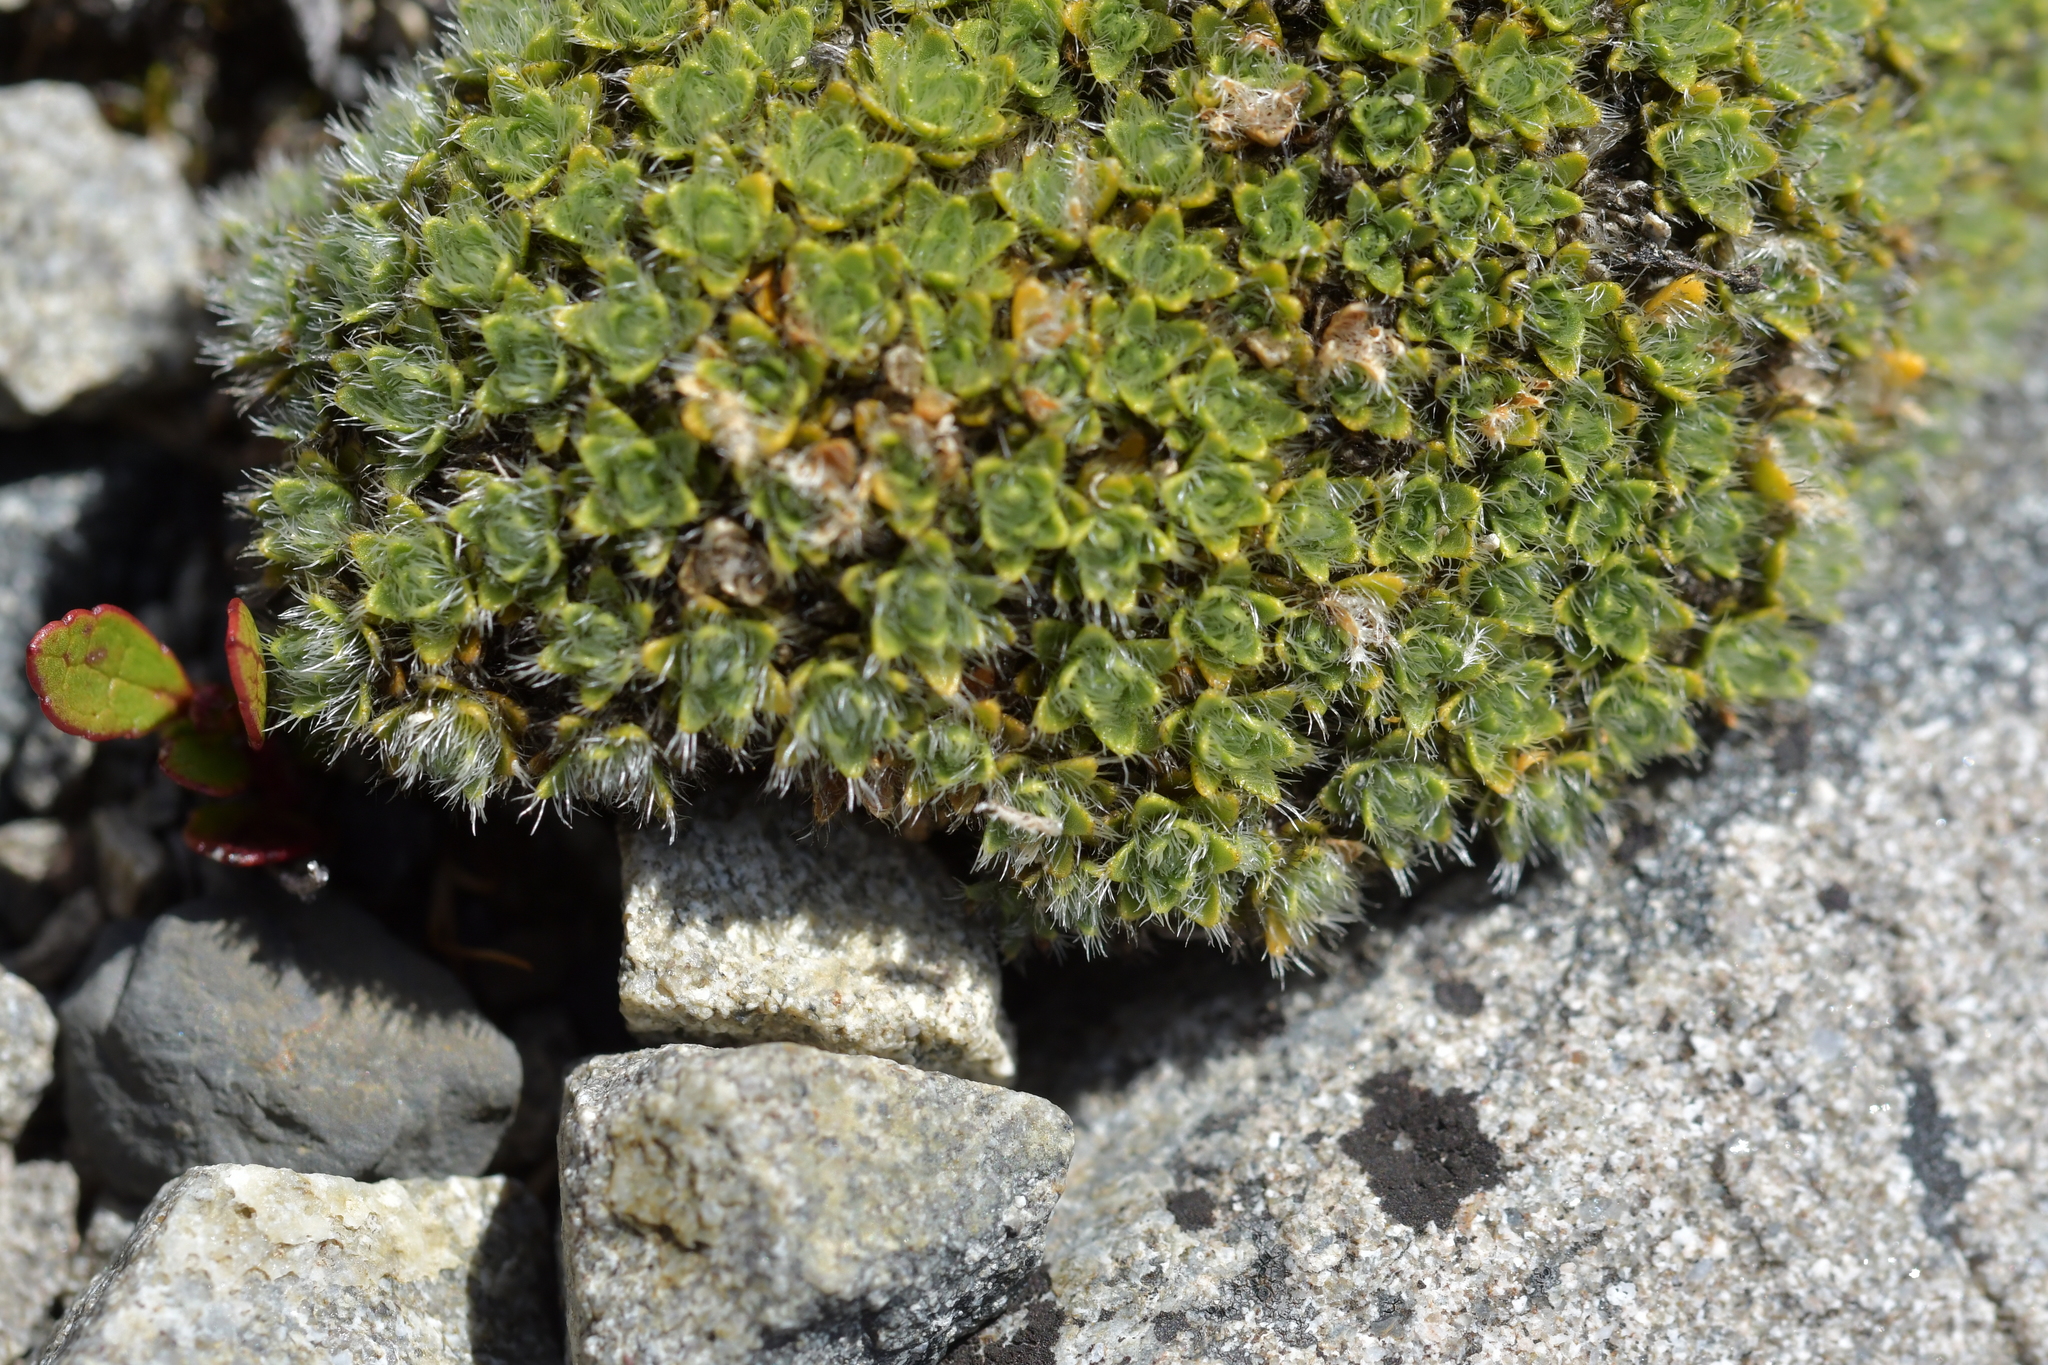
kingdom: Plantae
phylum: Tracheophyta
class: Magnoliopsida
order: Lamiales
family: Plantaginaceae
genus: Veronica
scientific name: Veronica pulvinaris
